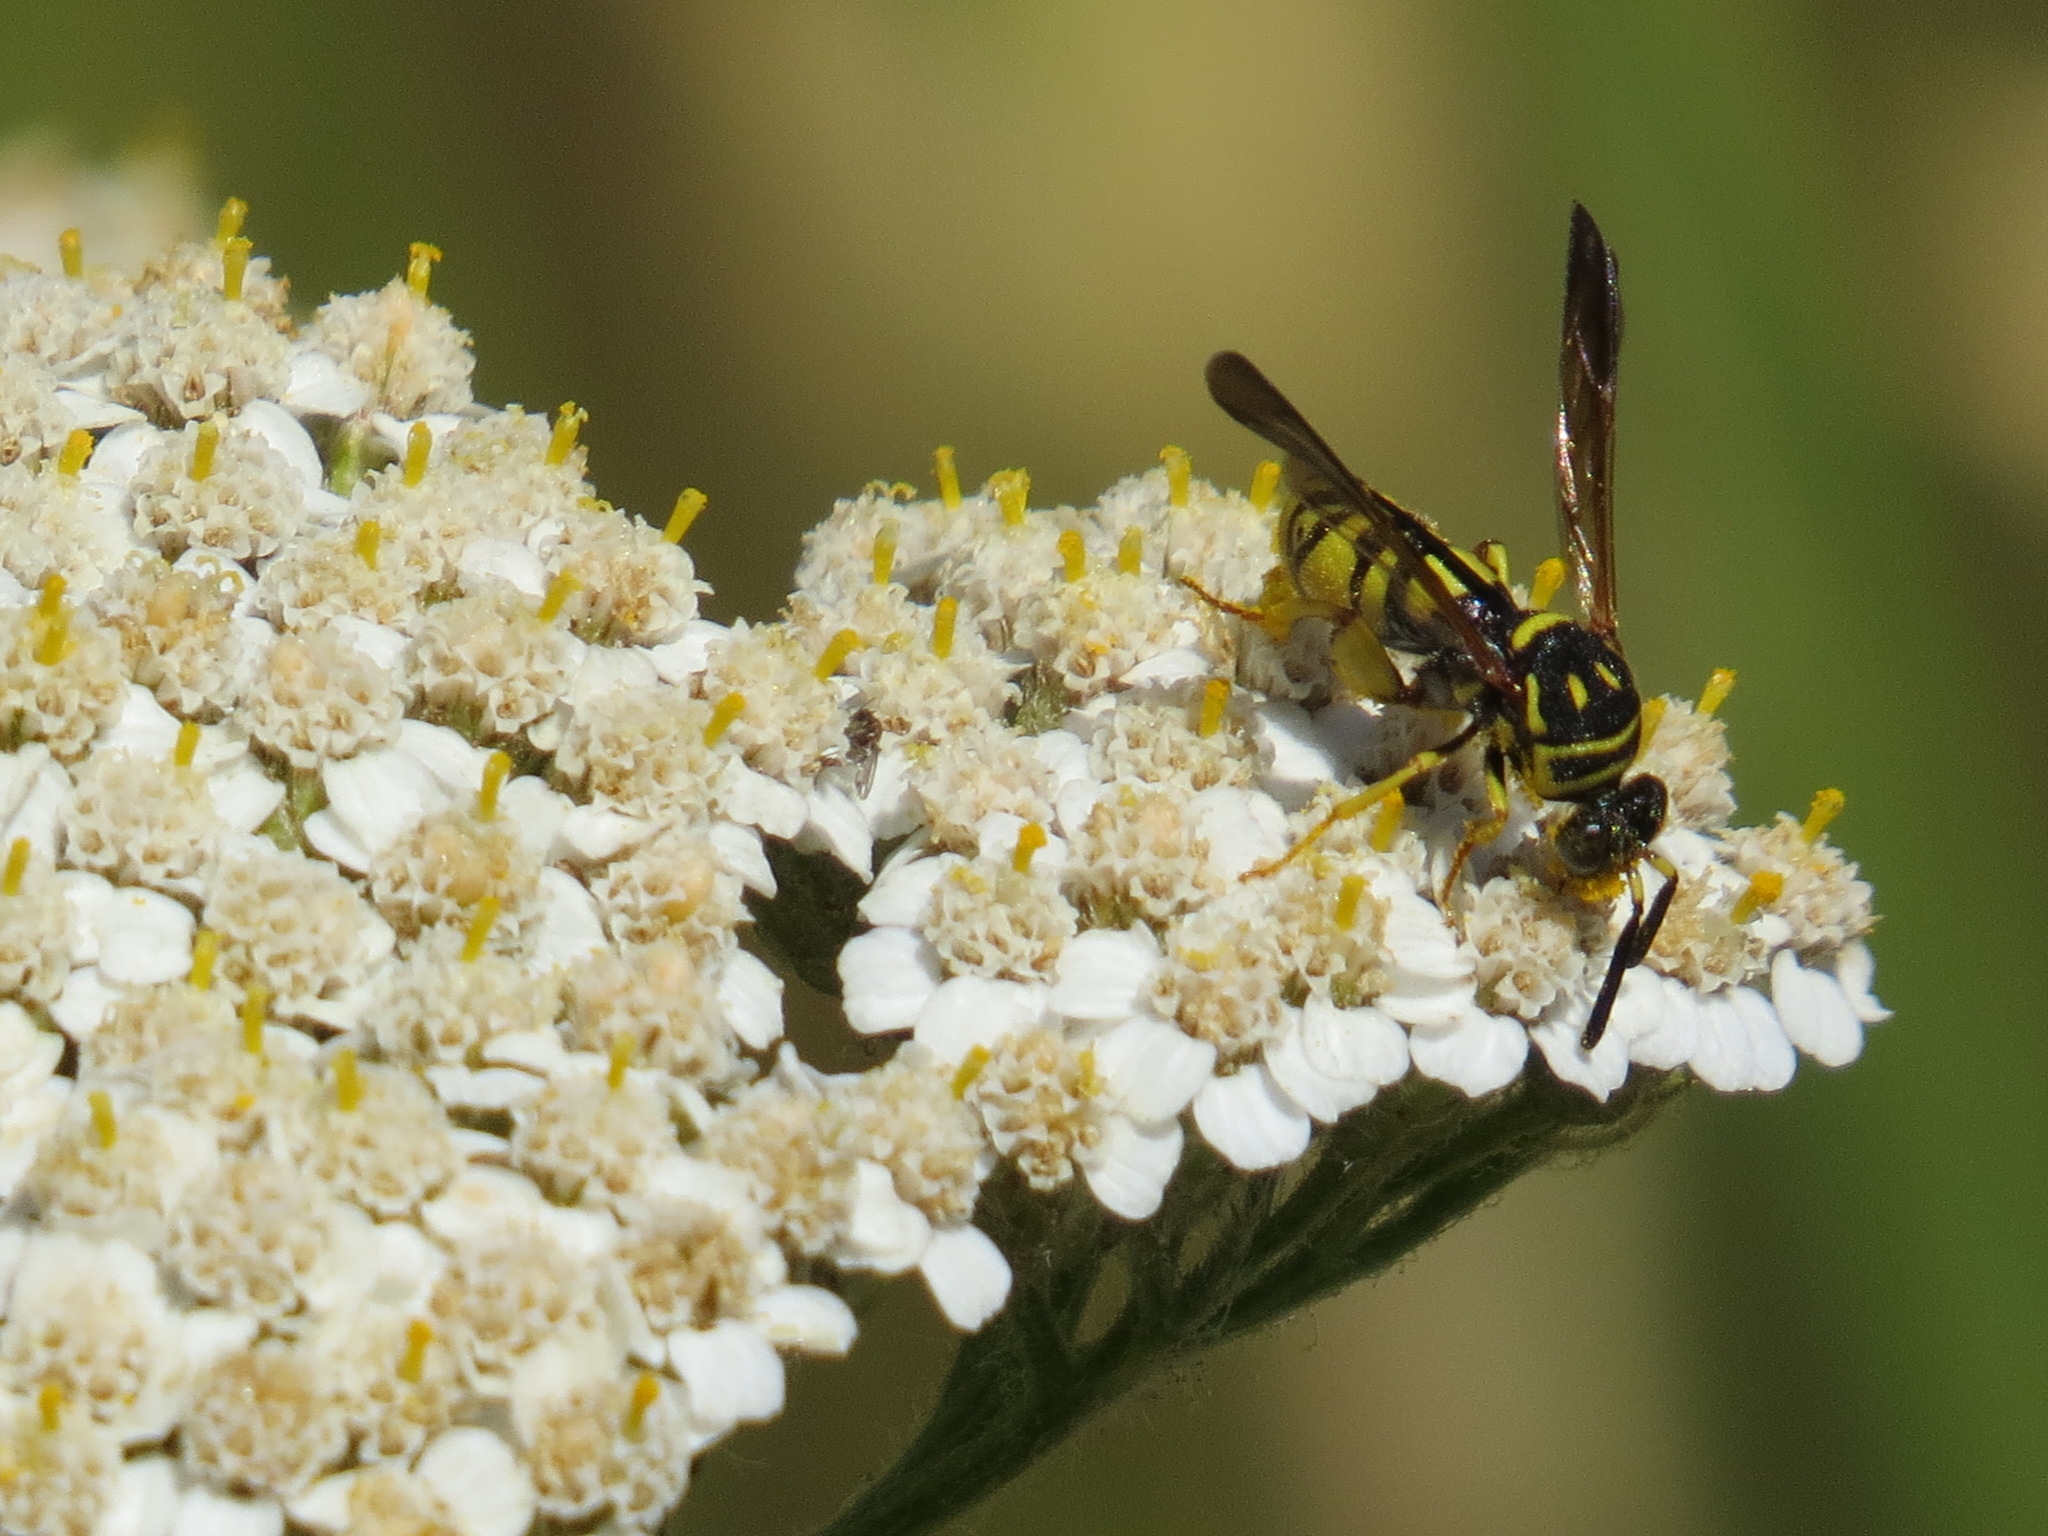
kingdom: Animalia
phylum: Arthropoda
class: Insecta
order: Hymenoptera
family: Leucospidae
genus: Leucospis
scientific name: Leucospis affinis
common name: Wasp
